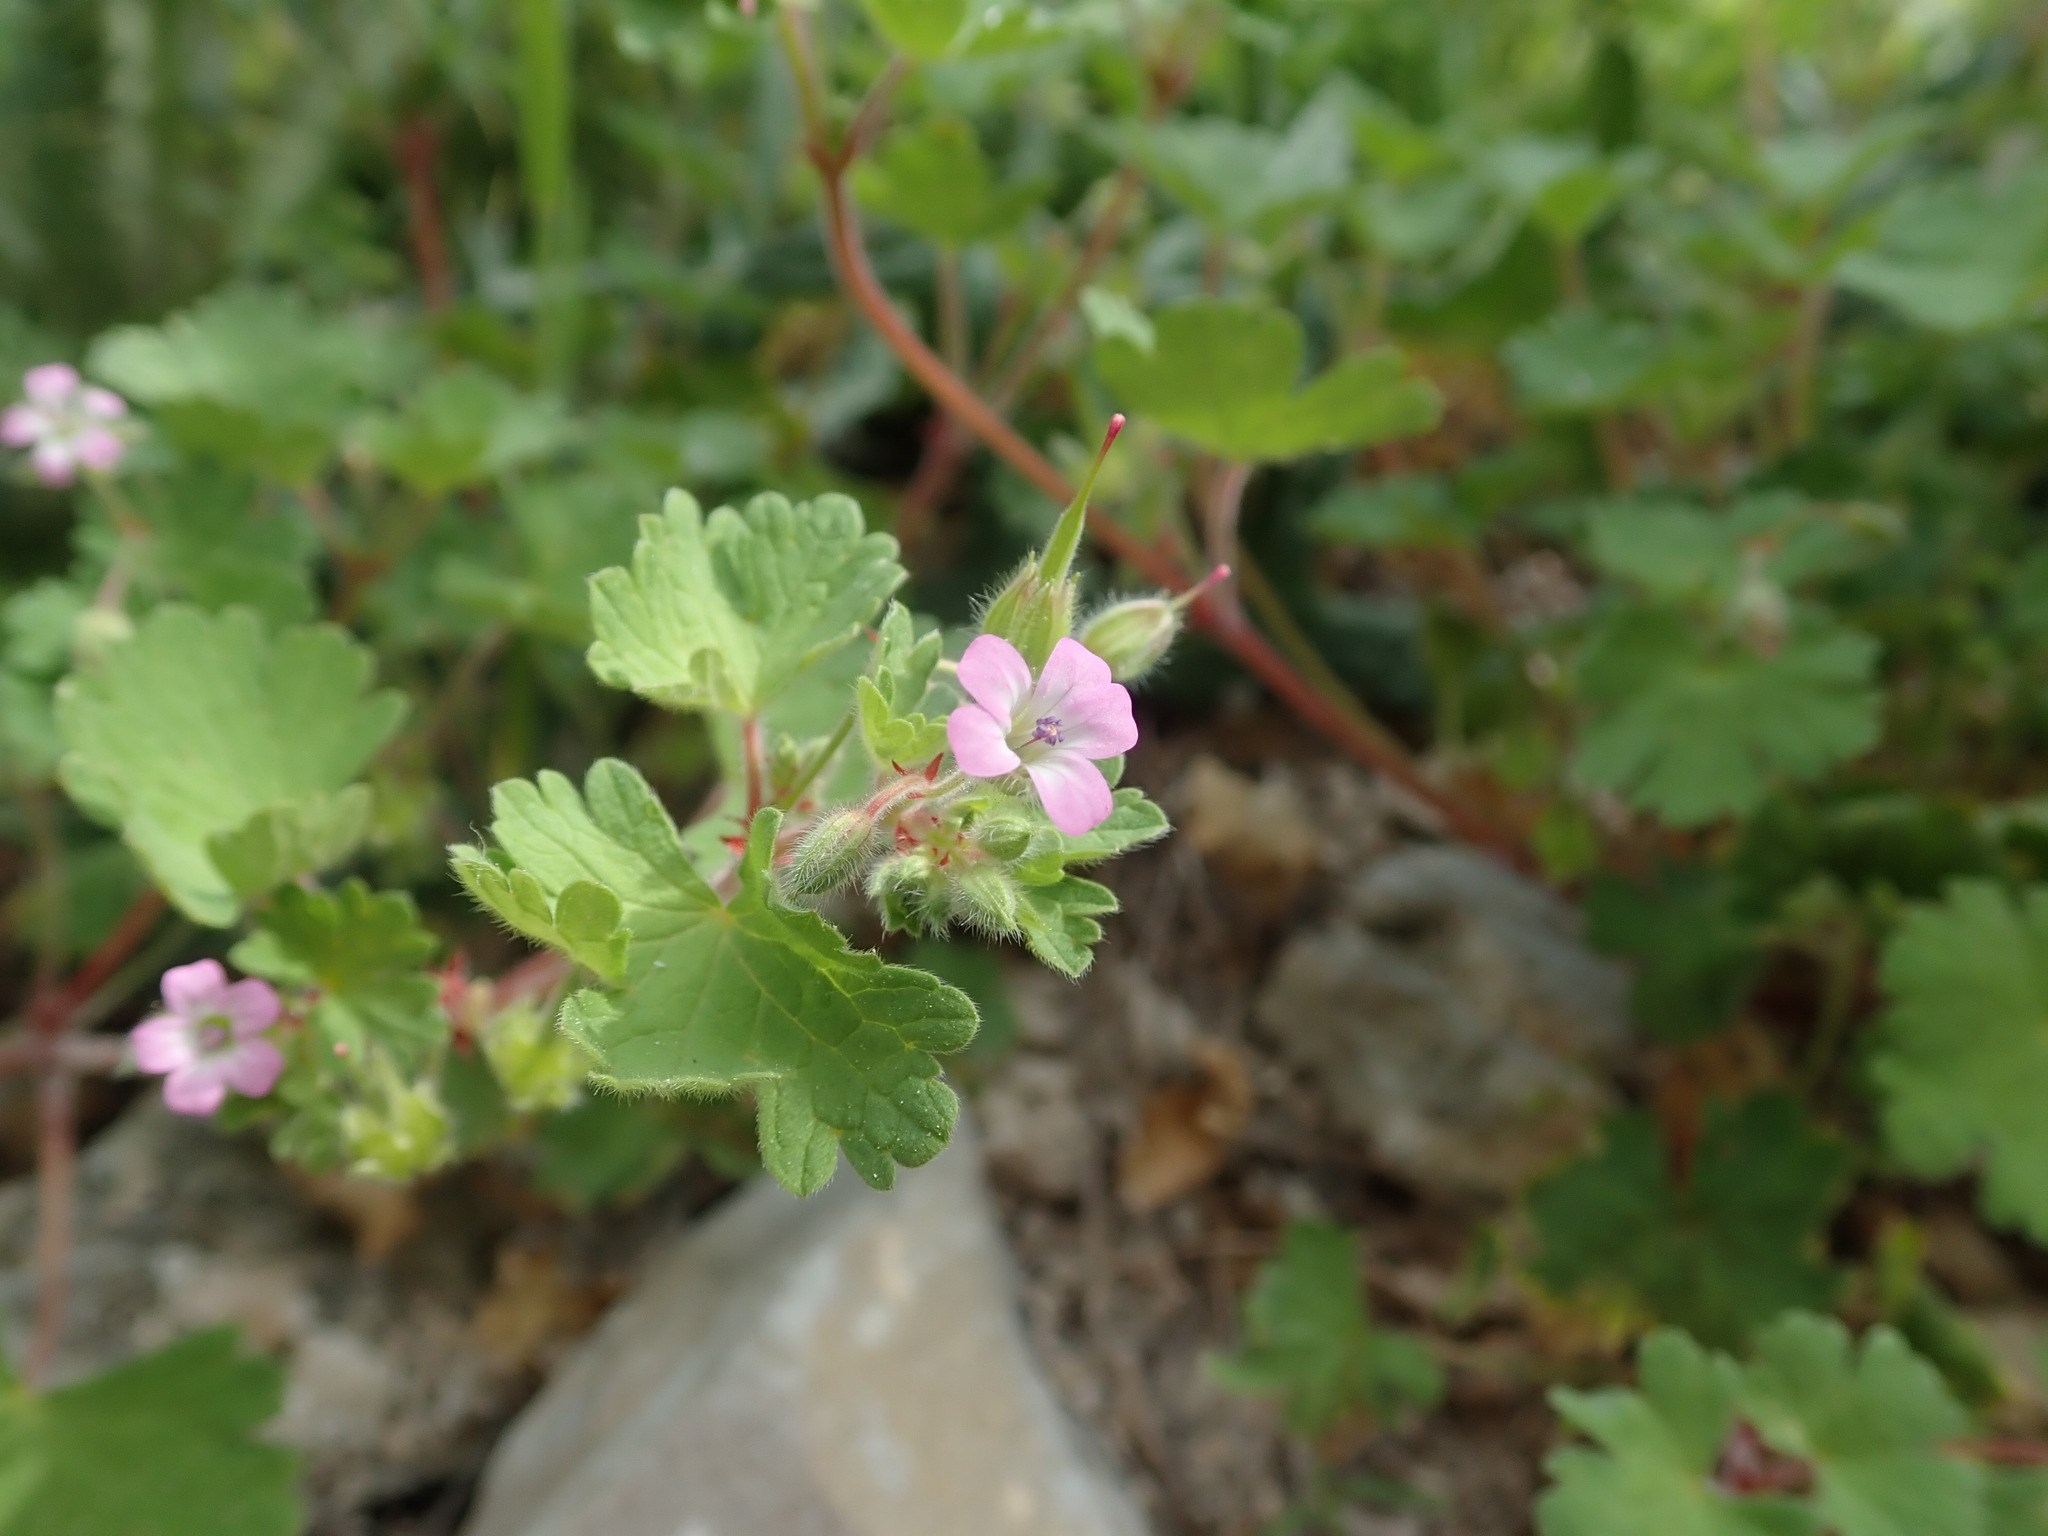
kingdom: Plantae
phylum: Tracheophyta
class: Magnoliopsida
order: Geraniales
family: Geraniaceae
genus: Geranium
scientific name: Geranium rotundifolium
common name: Round-leaved crane's-bill
